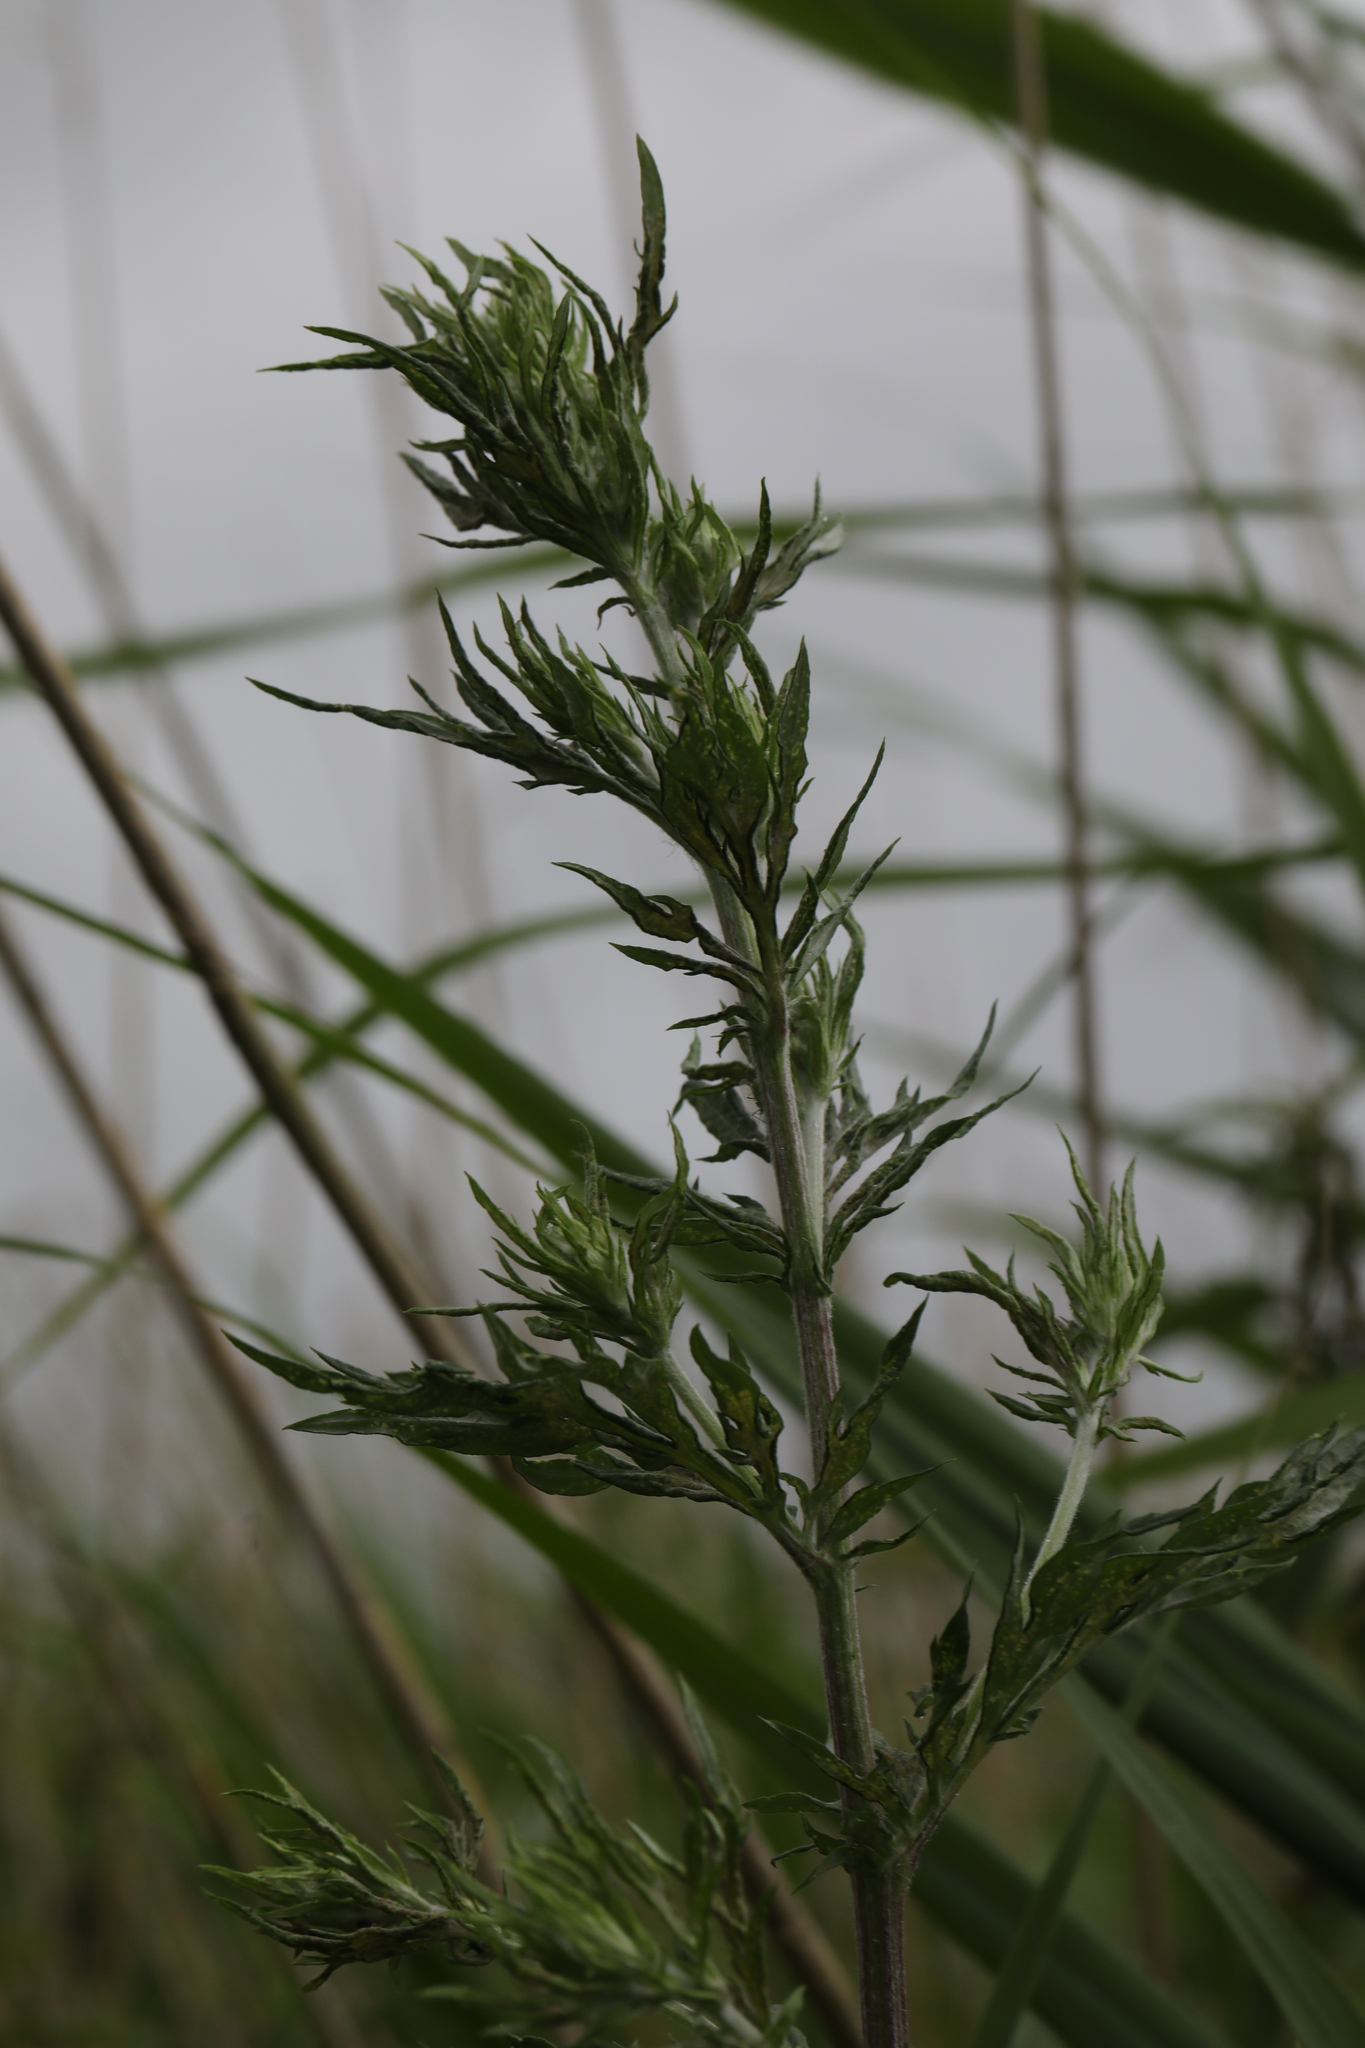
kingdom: Plantae
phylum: Tracheophyta
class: Magnoliopsida
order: Asterales
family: Asteraceae
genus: Artemisia
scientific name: Artemisia vulgaris
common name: Mugwort
